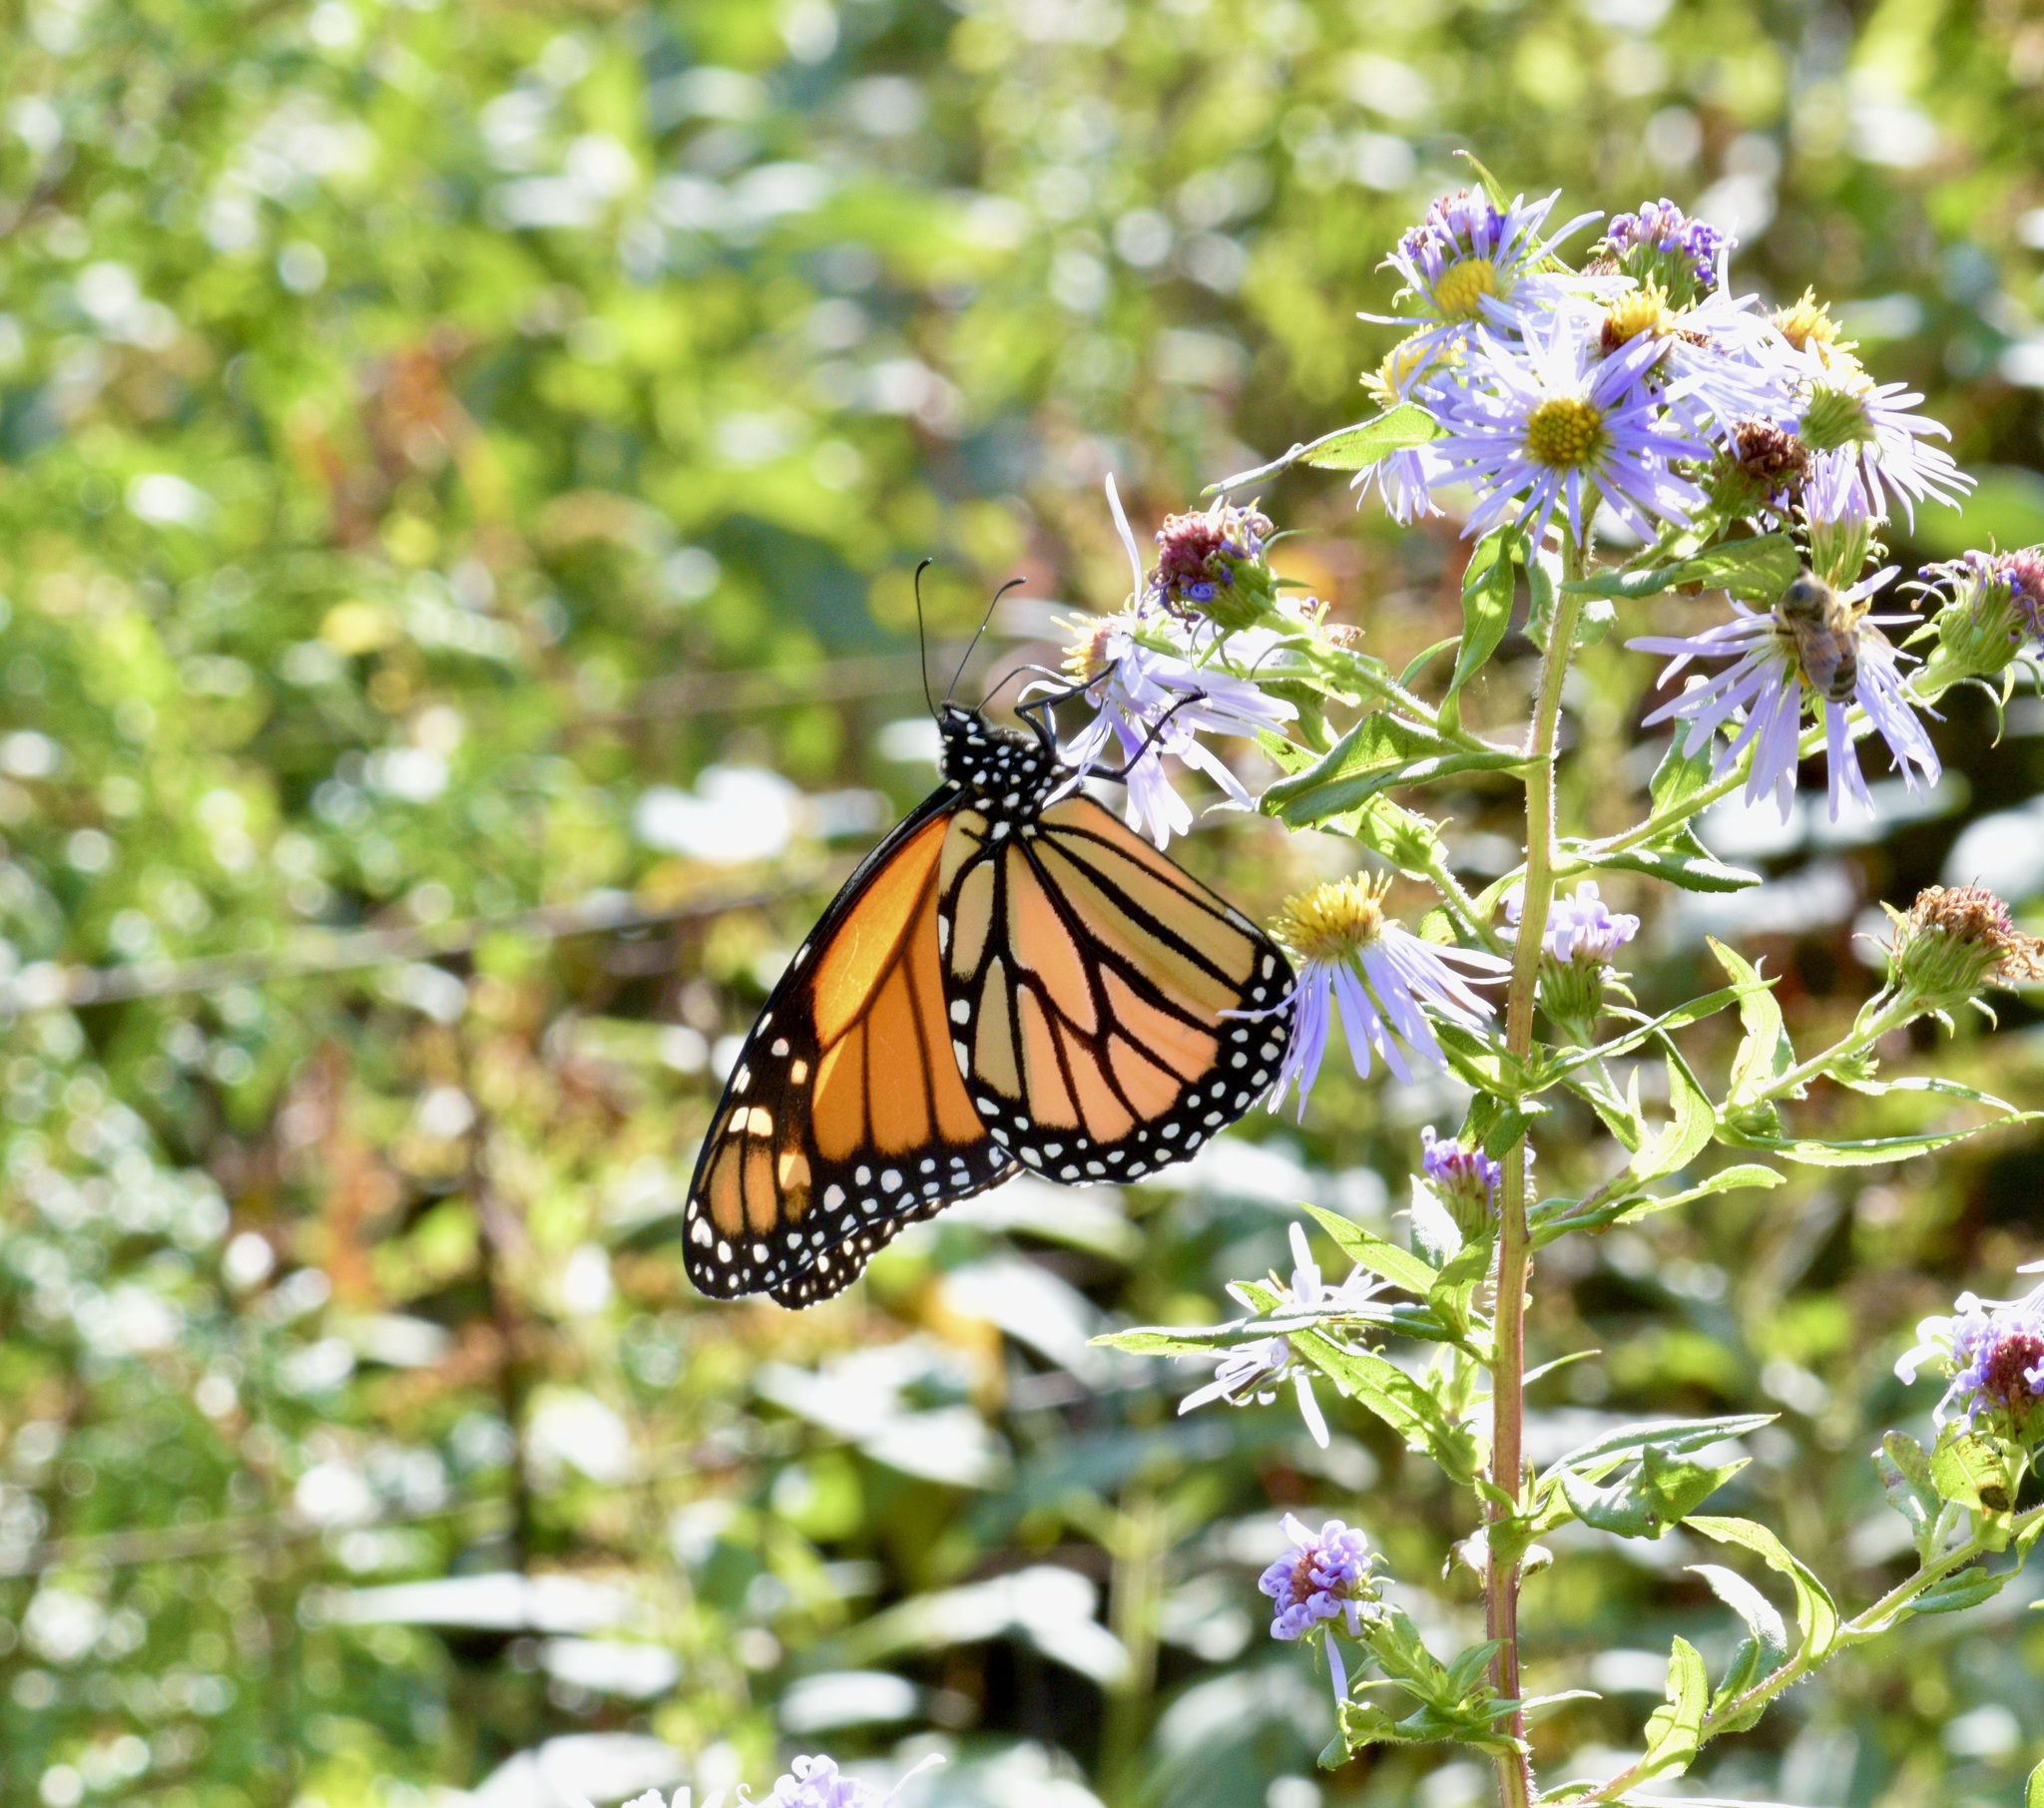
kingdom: Animalia
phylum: Arthropoda
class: Insecta
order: Lepidoptera
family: Nymphalidae
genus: Danaus
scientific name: Danaus plexippus
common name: Monarch
